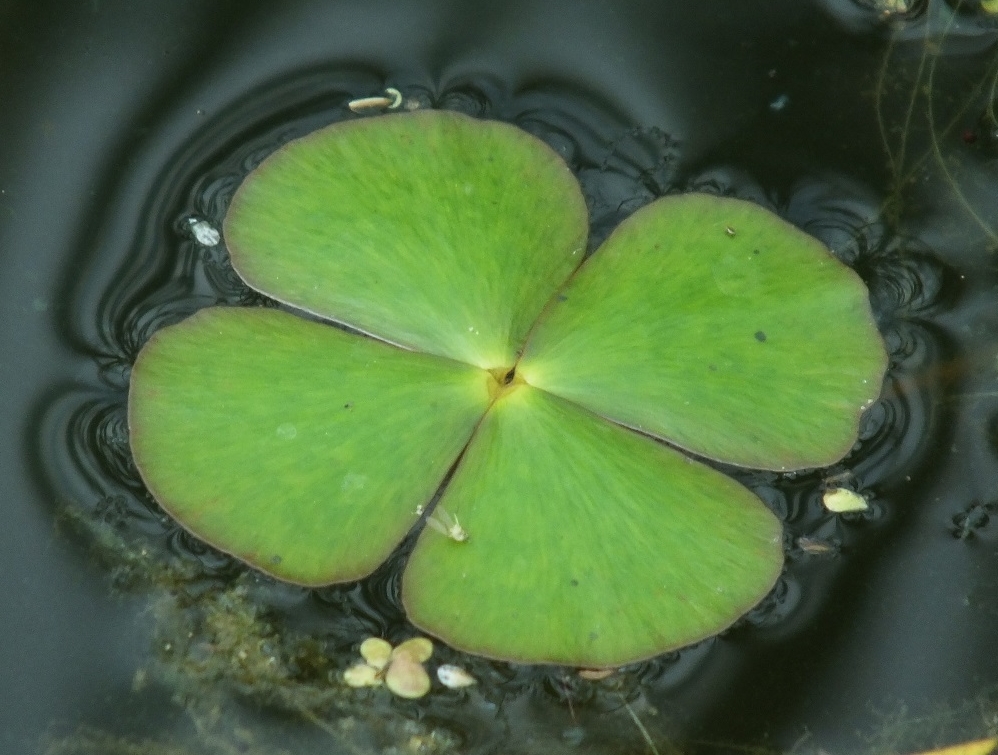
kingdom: Plantae
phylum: Tracheophyta
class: Polypodiopsida
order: Salviniales
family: Marsileaceae
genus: Marsilea
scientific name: Marsilea quadrifolia
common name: Water shamrock
